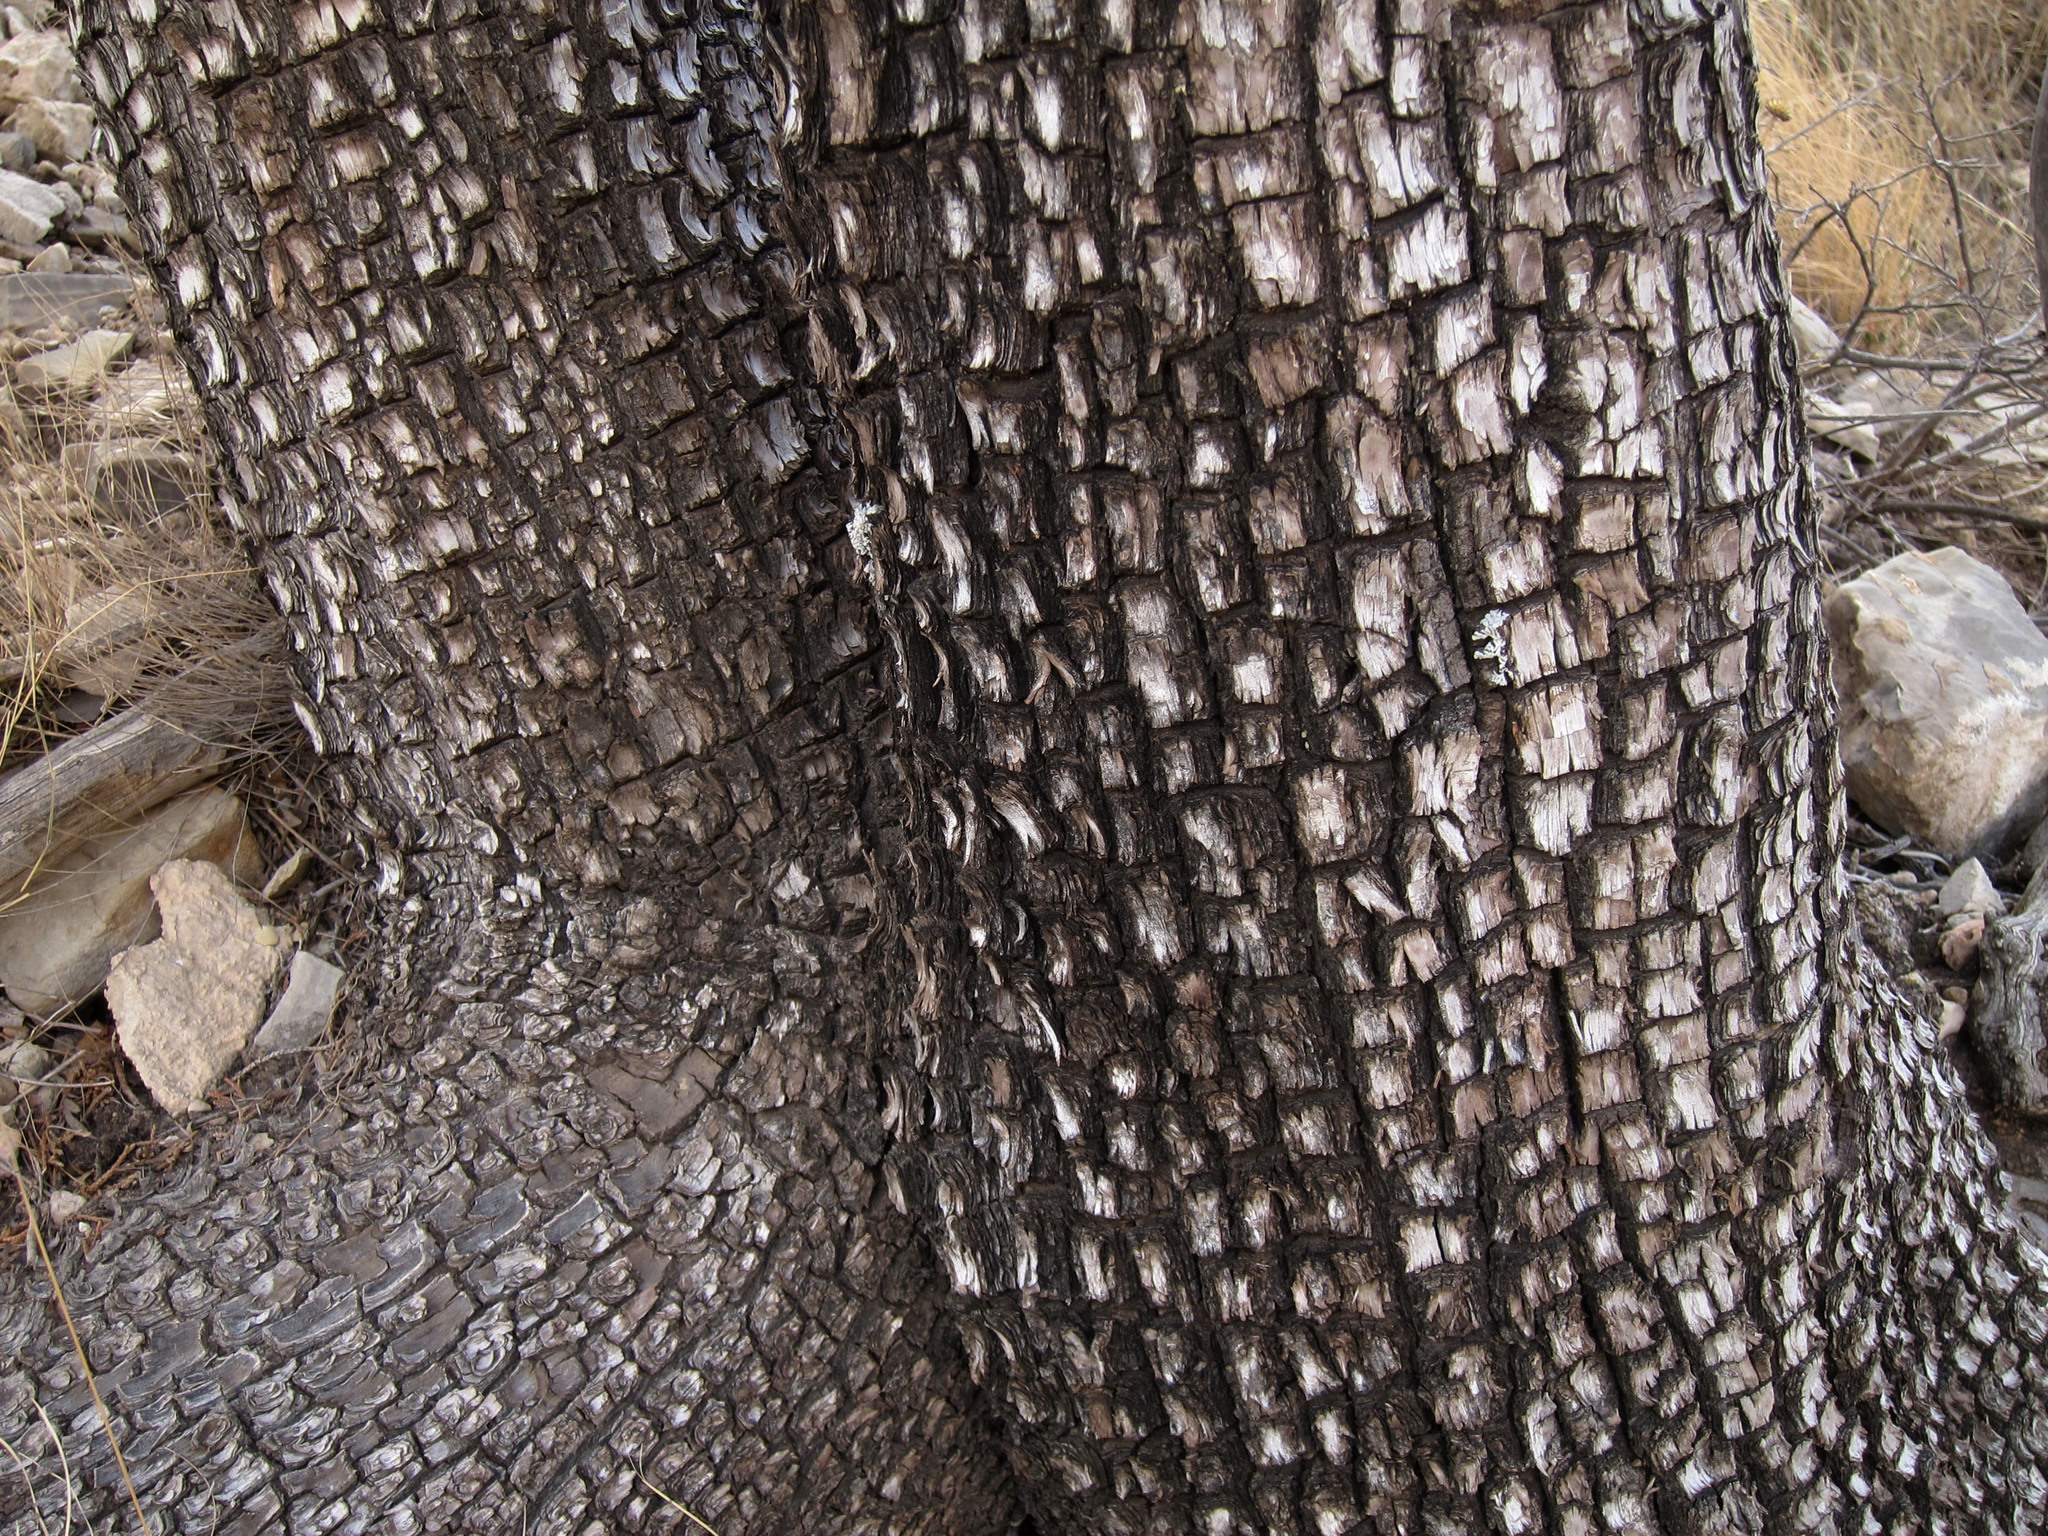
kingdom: Plantae
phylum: Tracheophyta
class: Pinopsida
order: Pinales
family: Cupressaceae
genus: Juniperus
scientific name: Juniperus deppeana
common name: Alligator juniper
